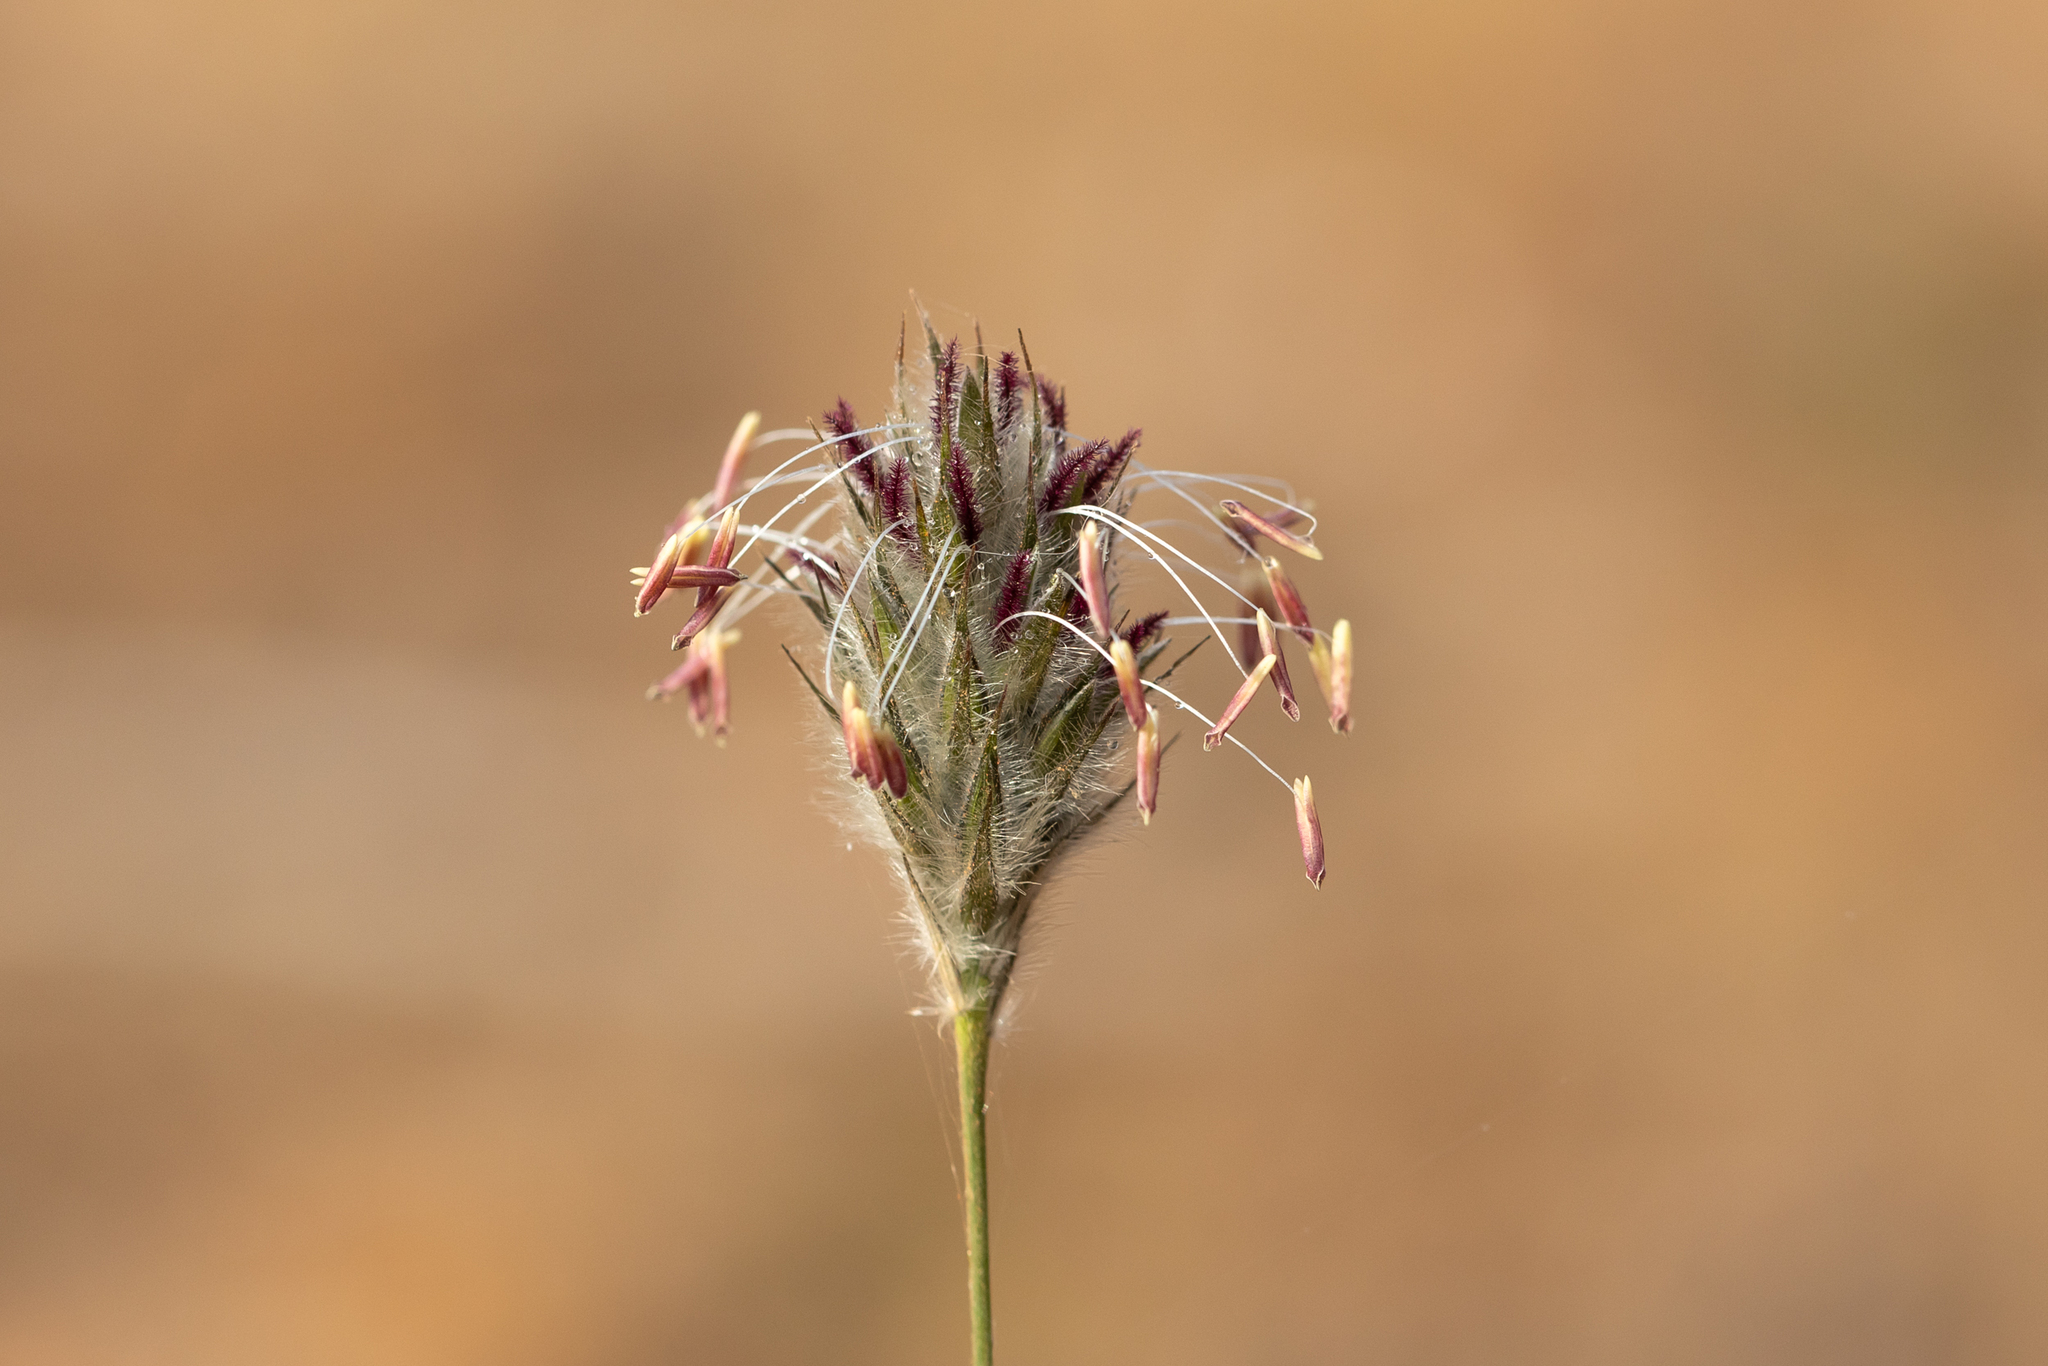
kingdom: Plantae
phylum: Tracheophyta
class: Liliopsida
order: Poales
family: Poaceae
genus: Neurachne
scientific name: Neurachne alopecuroidea
